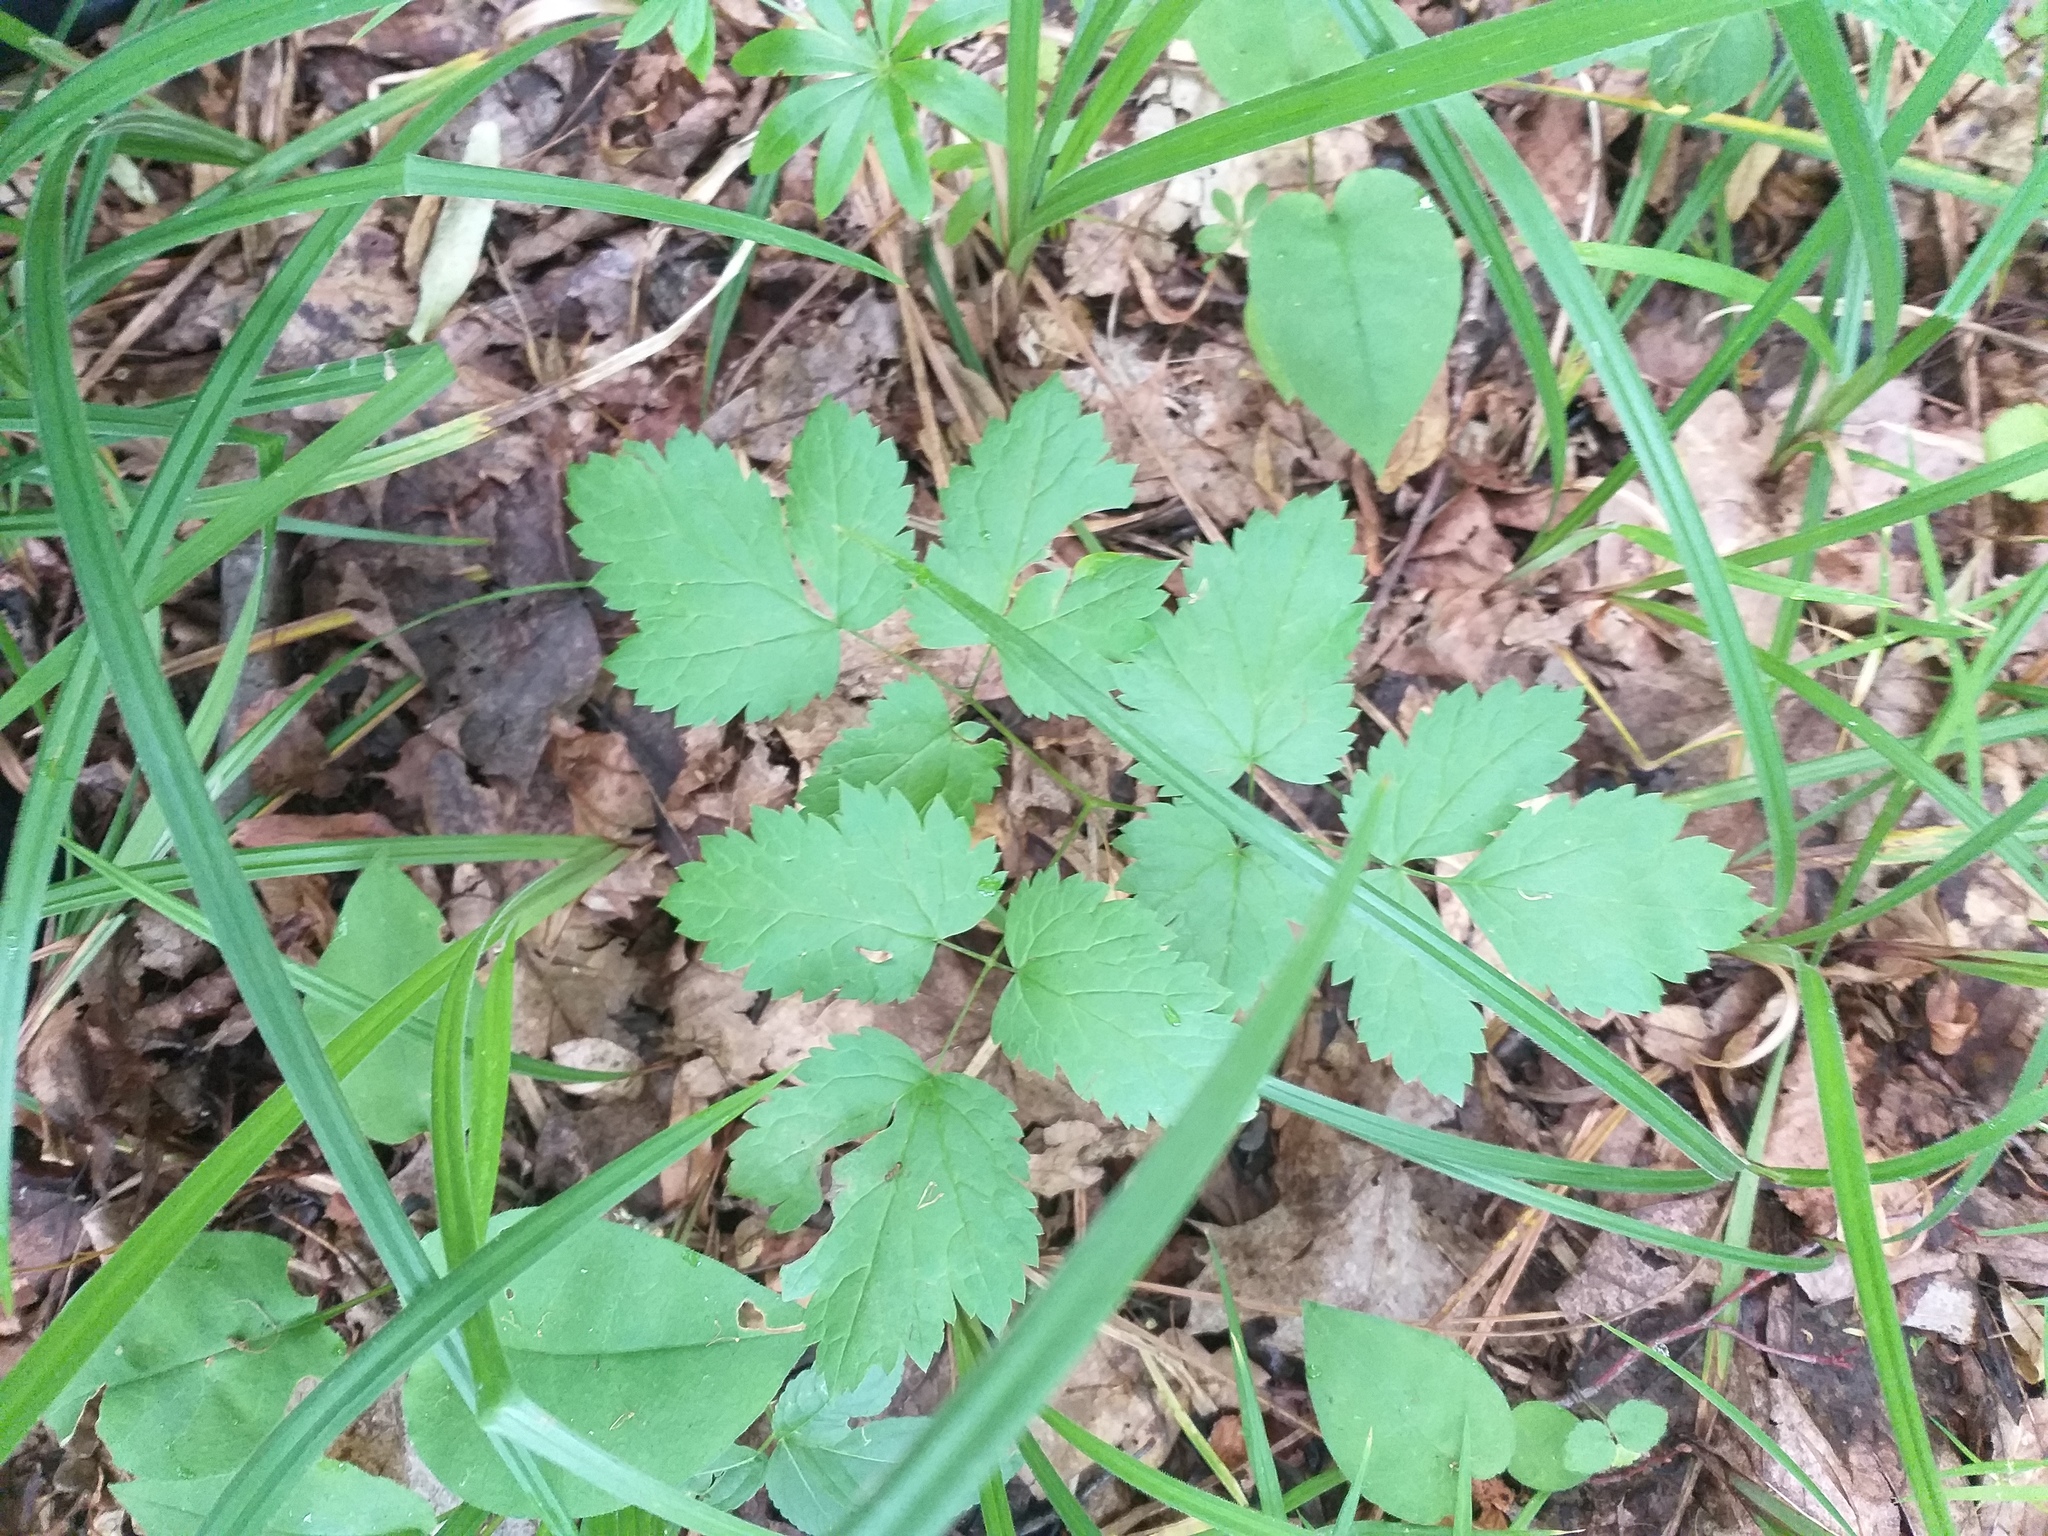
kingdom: Plantae
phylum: Tracheophyta
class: Magnoliopsida
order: Ranunculales
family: Ranunculaceae
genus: Actaea
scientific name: Actaea spicata
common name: Baneberry
